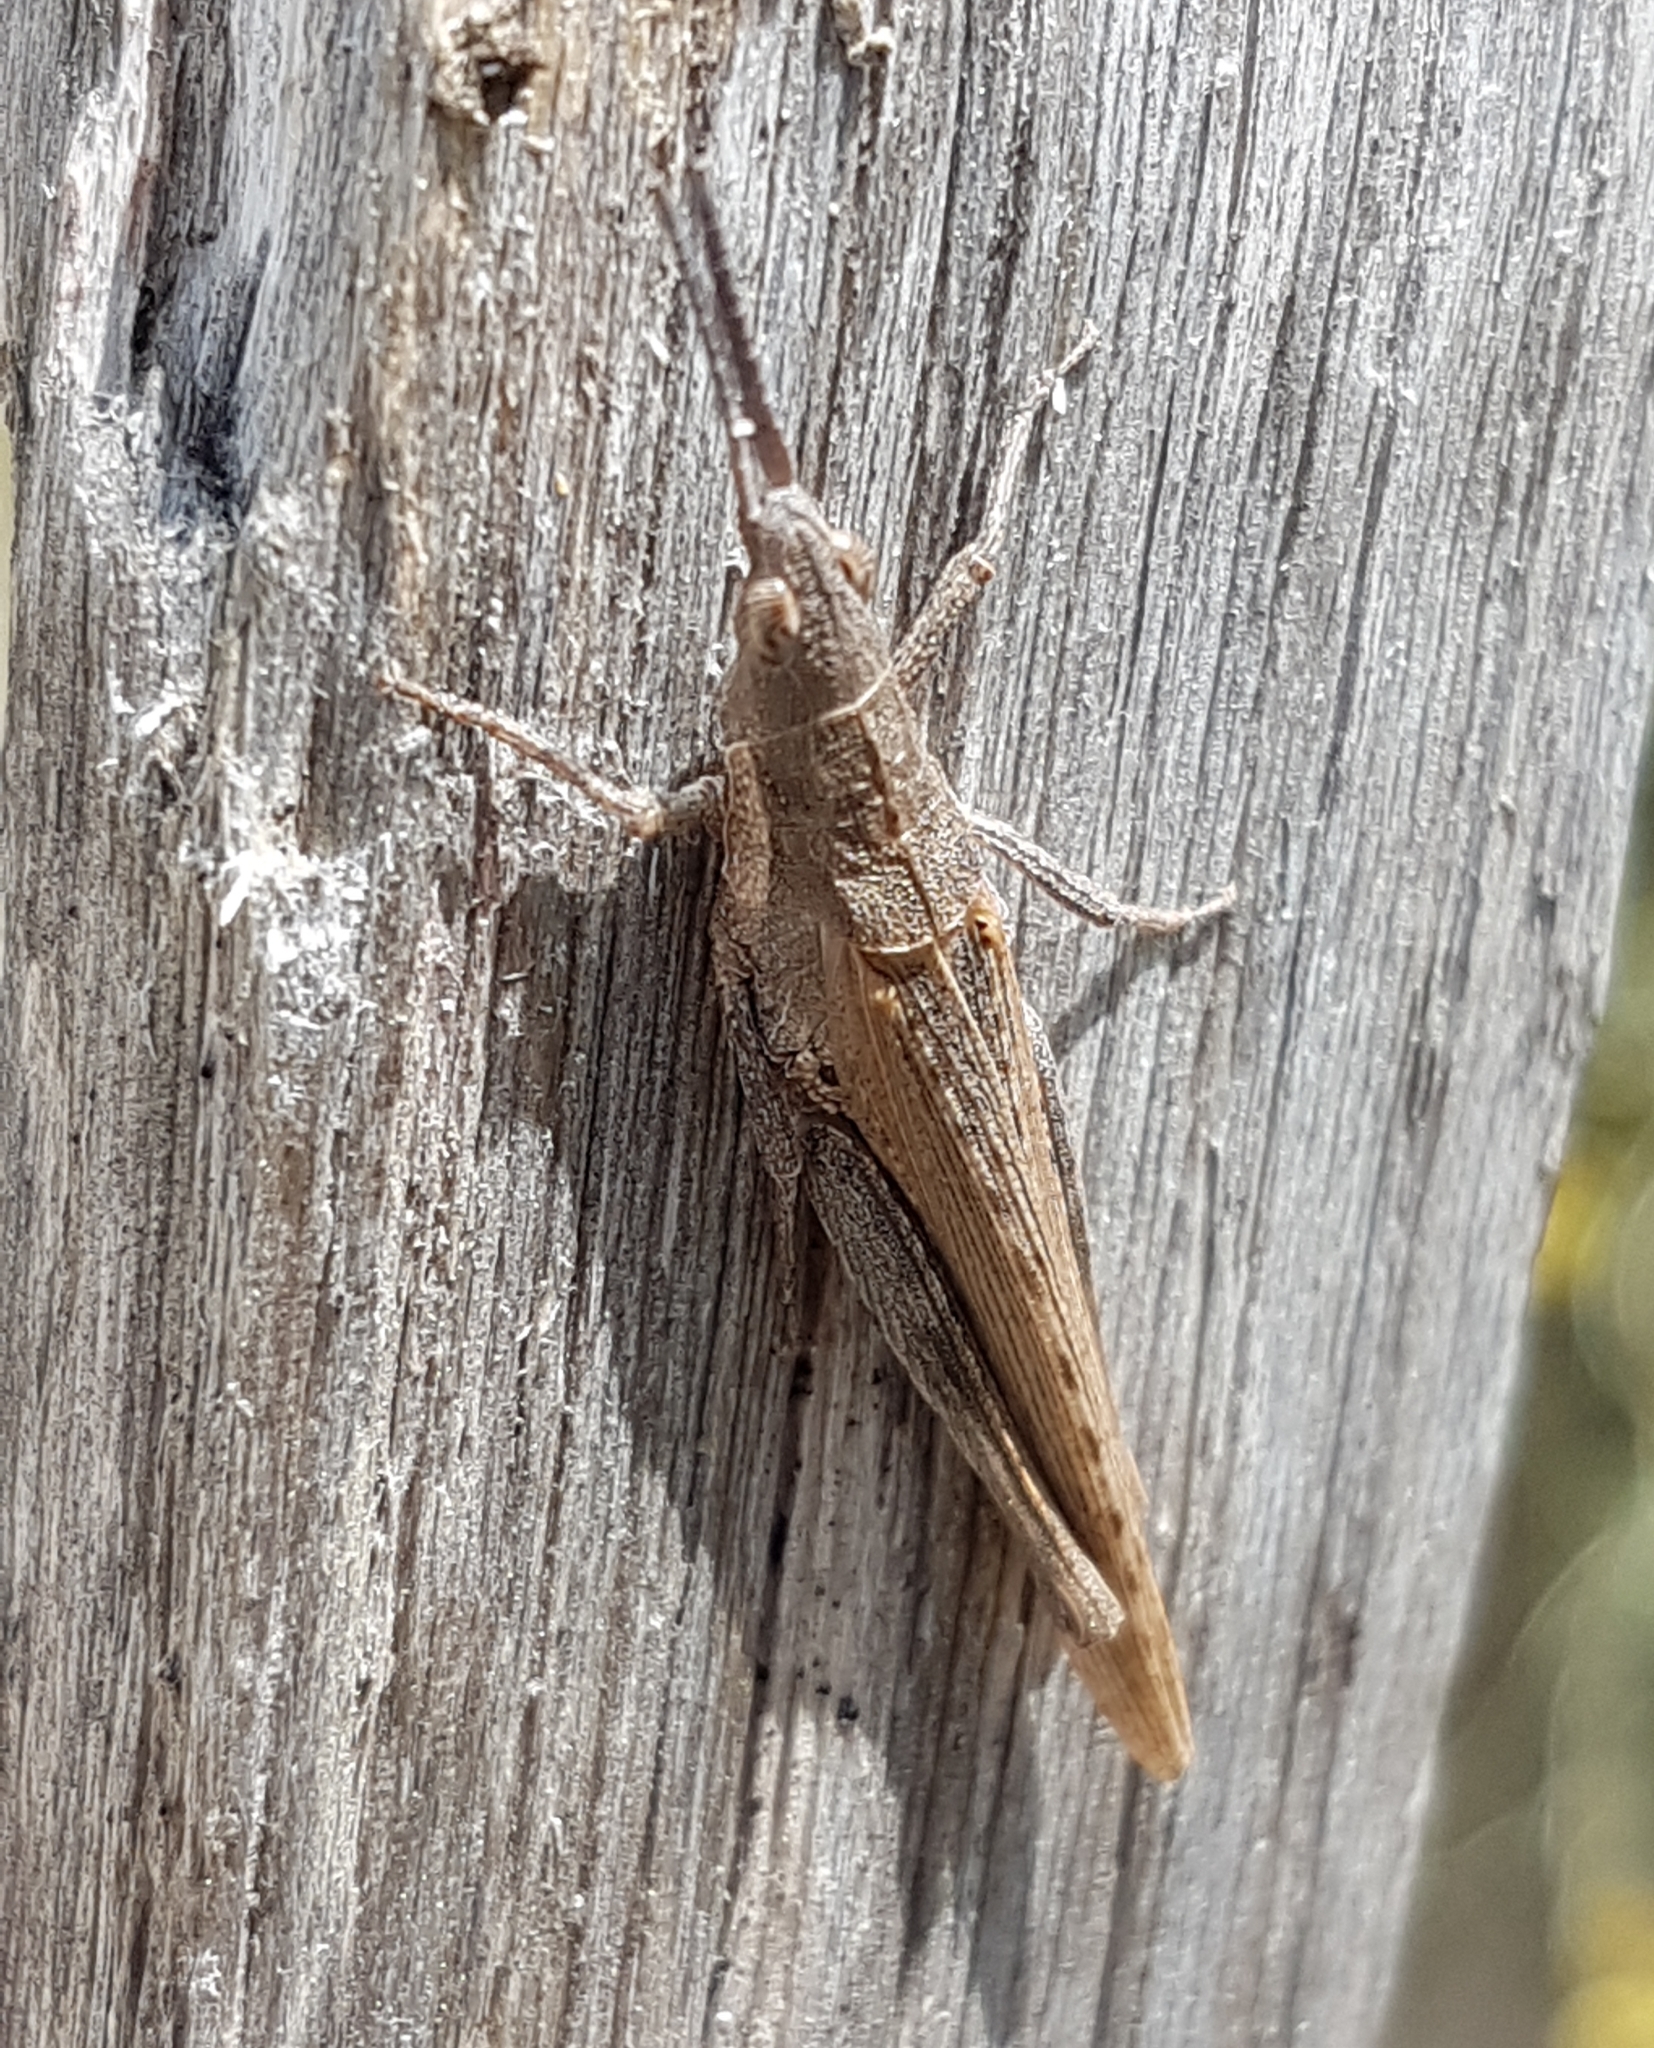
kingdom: Animalia
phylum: Arthropoda
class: Insecta
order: Orthoptera
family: Pyrgomorphidae
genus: Pyrgomorpha
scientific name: Pyrgomorpha conica
